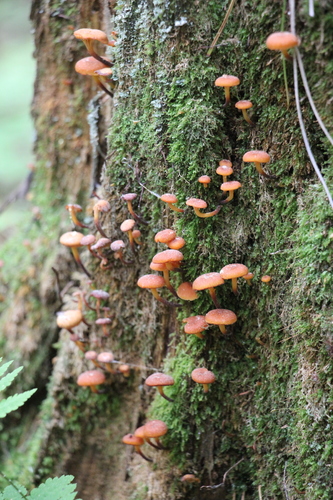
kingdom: Fungi
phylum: Basidiomycota
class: Agaricomycetes
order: Agaricales
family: Mycenaceae
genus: Xeromphalina
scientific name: Xeromphalina campanella
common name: Pinewood gingertail
